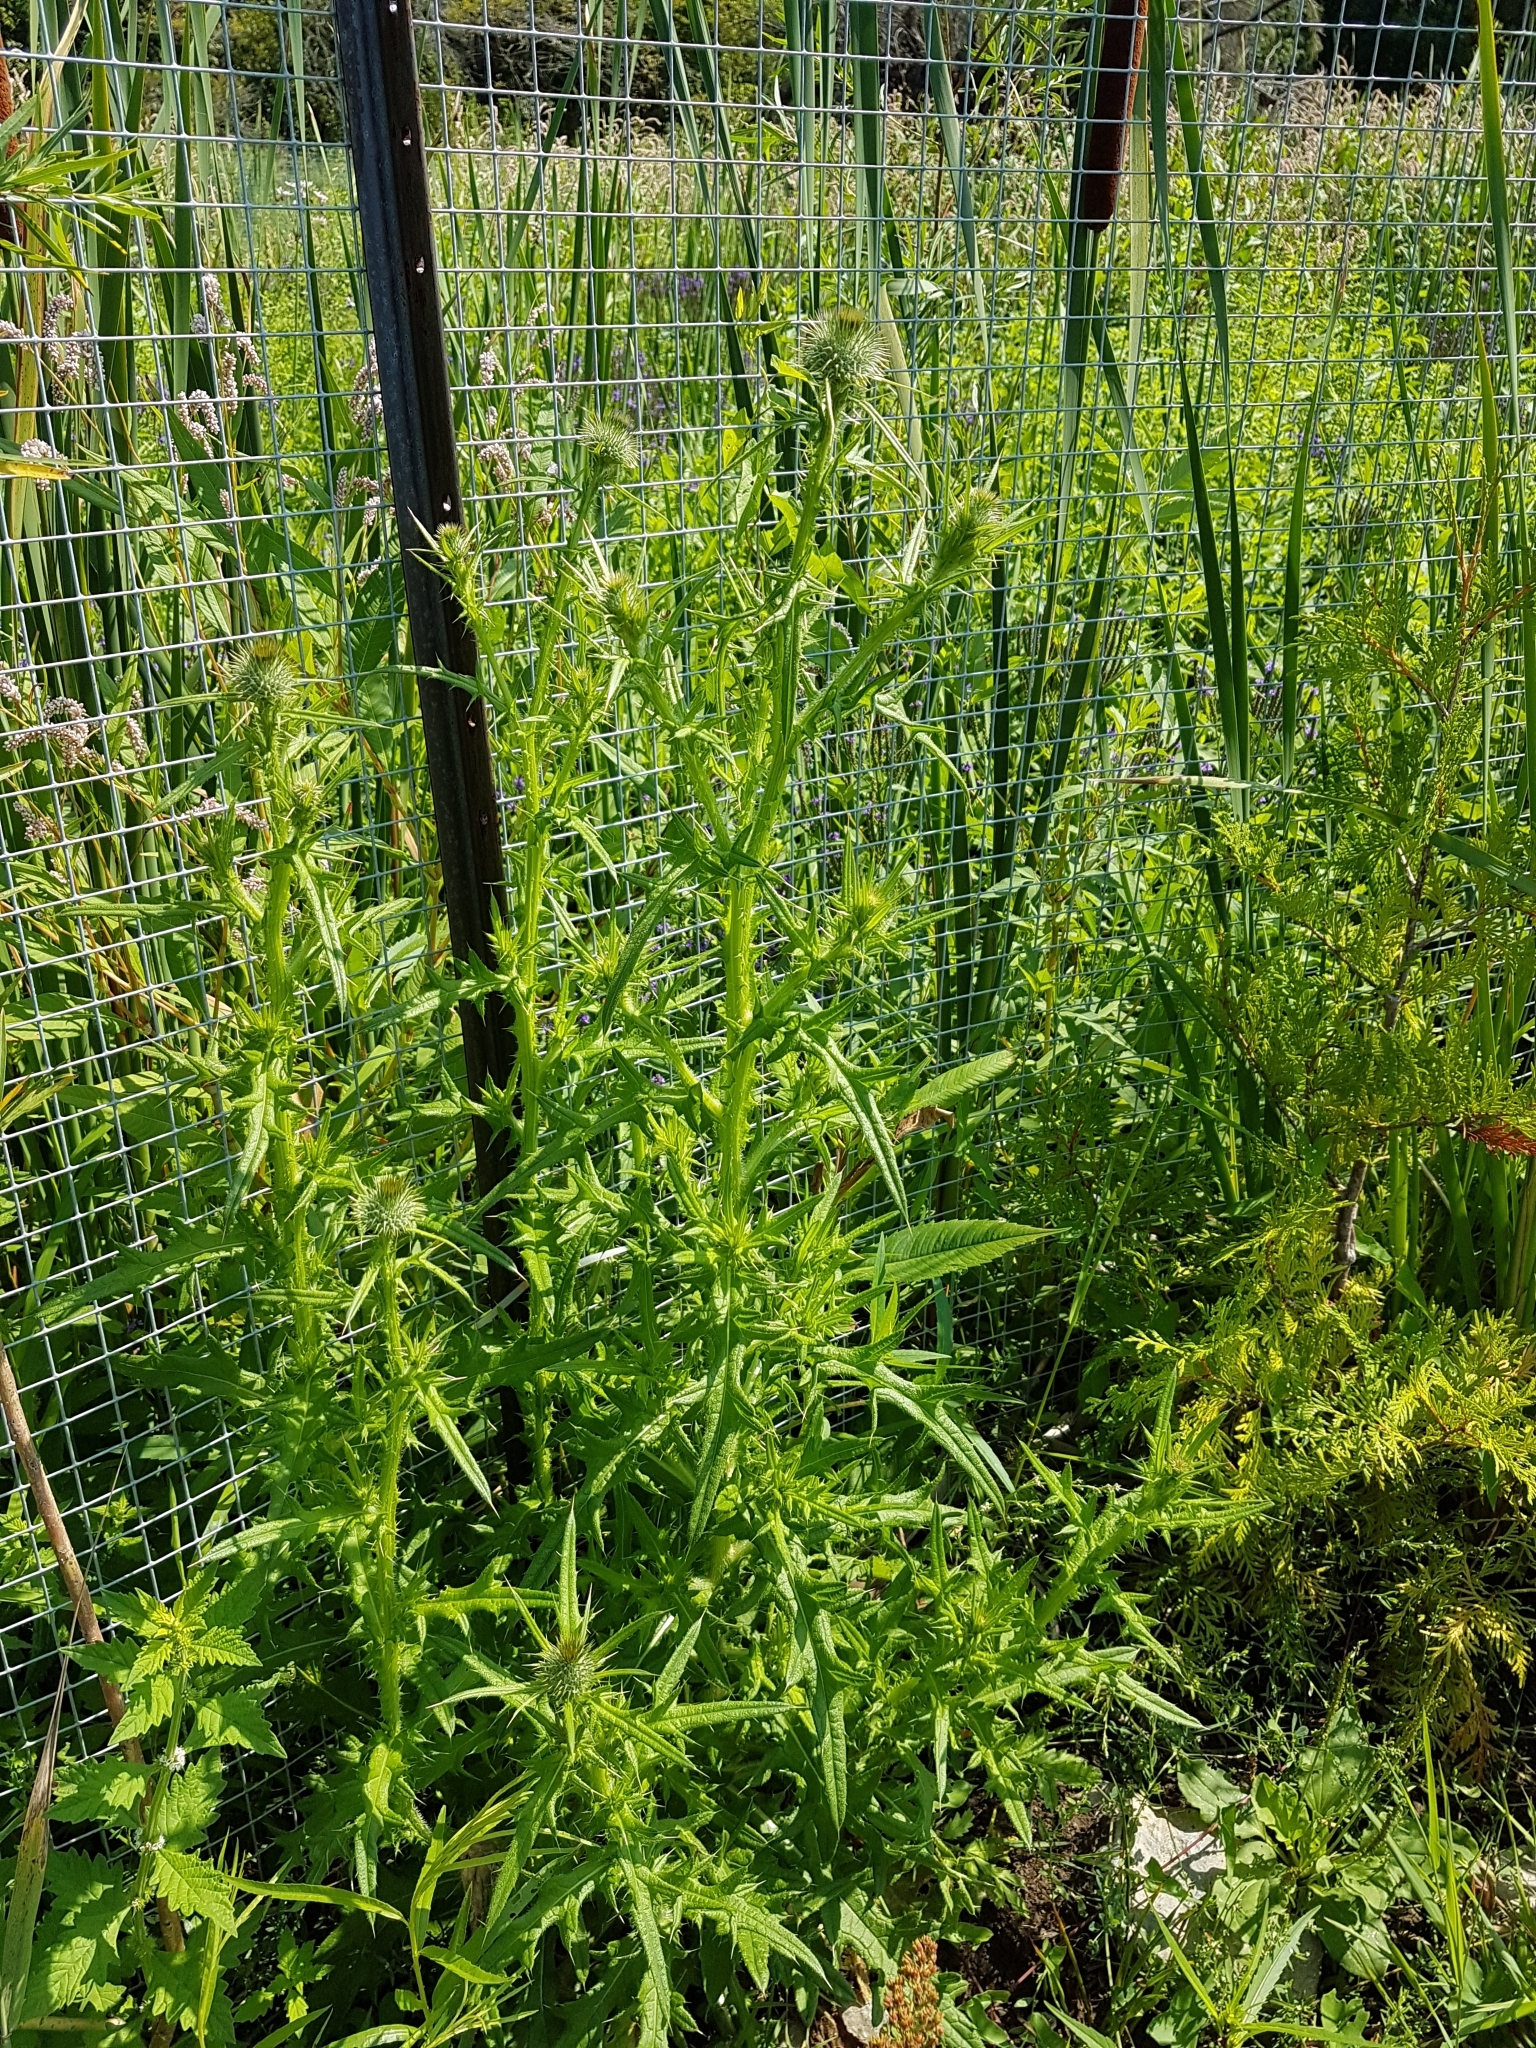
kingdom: Plantae
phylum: Tracheophyta
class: Magnoliopsida
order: Asterales
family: Asteraceae
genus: Cirsium
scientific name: Cirsium vulgare
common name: Bull thistle
